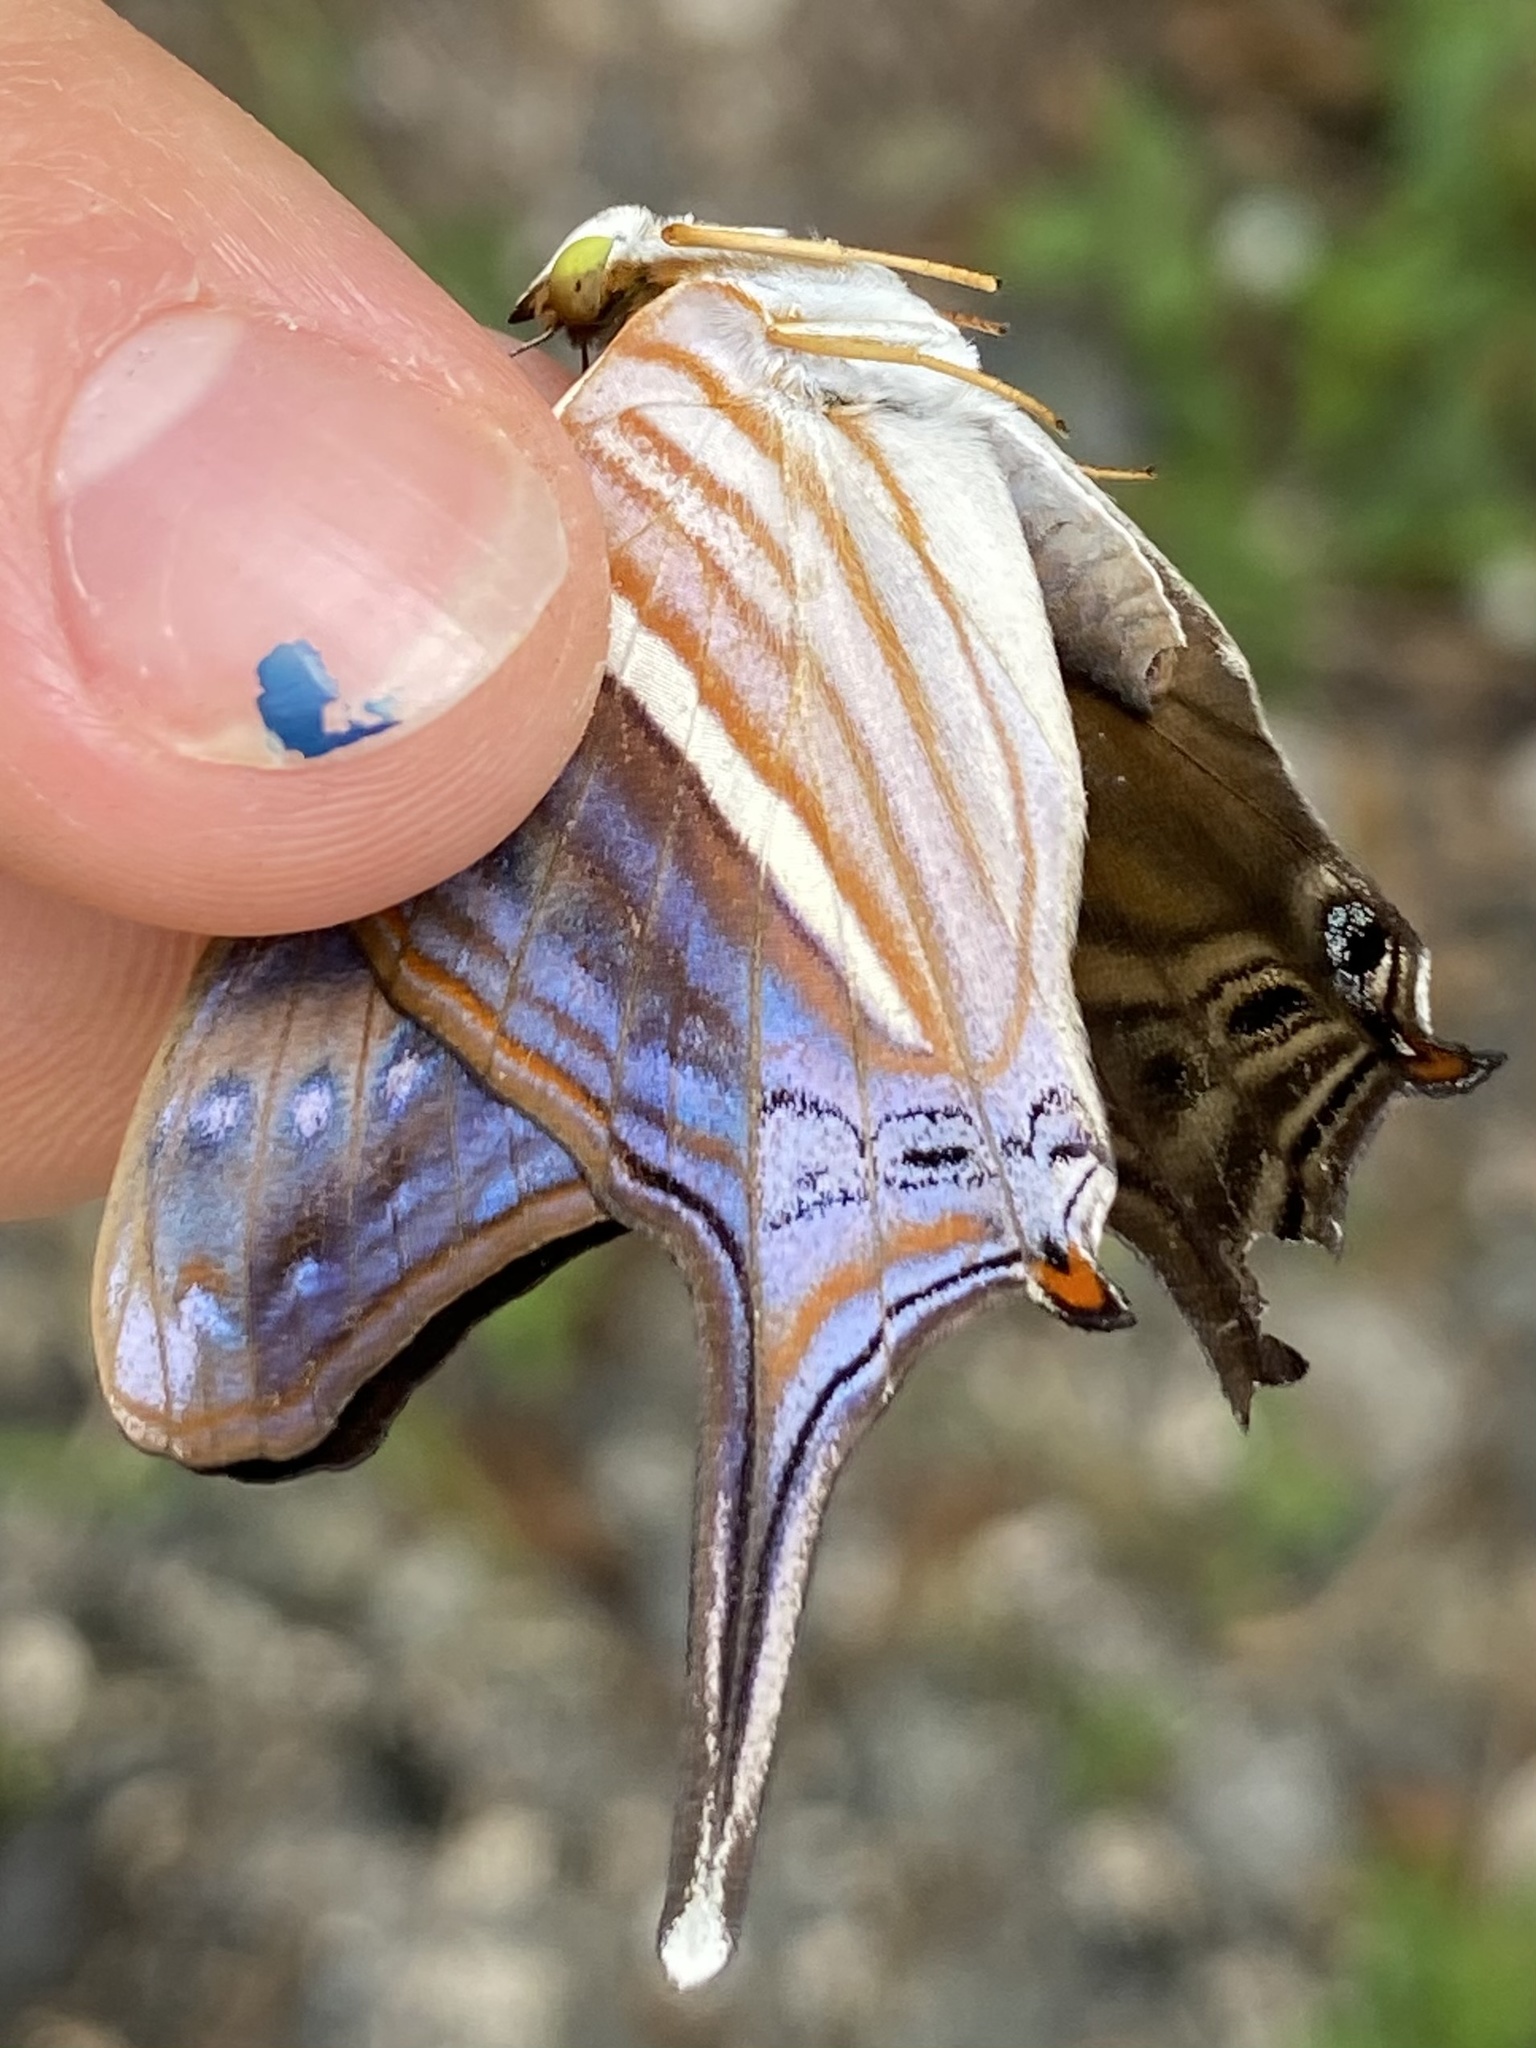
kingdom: Animalia
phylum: Arthropoda
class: Insecta
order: Lepidoptera
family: Nymphalidae
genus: Marpesia
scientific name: Marpesia chiron
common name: Many-banded daggerwing
